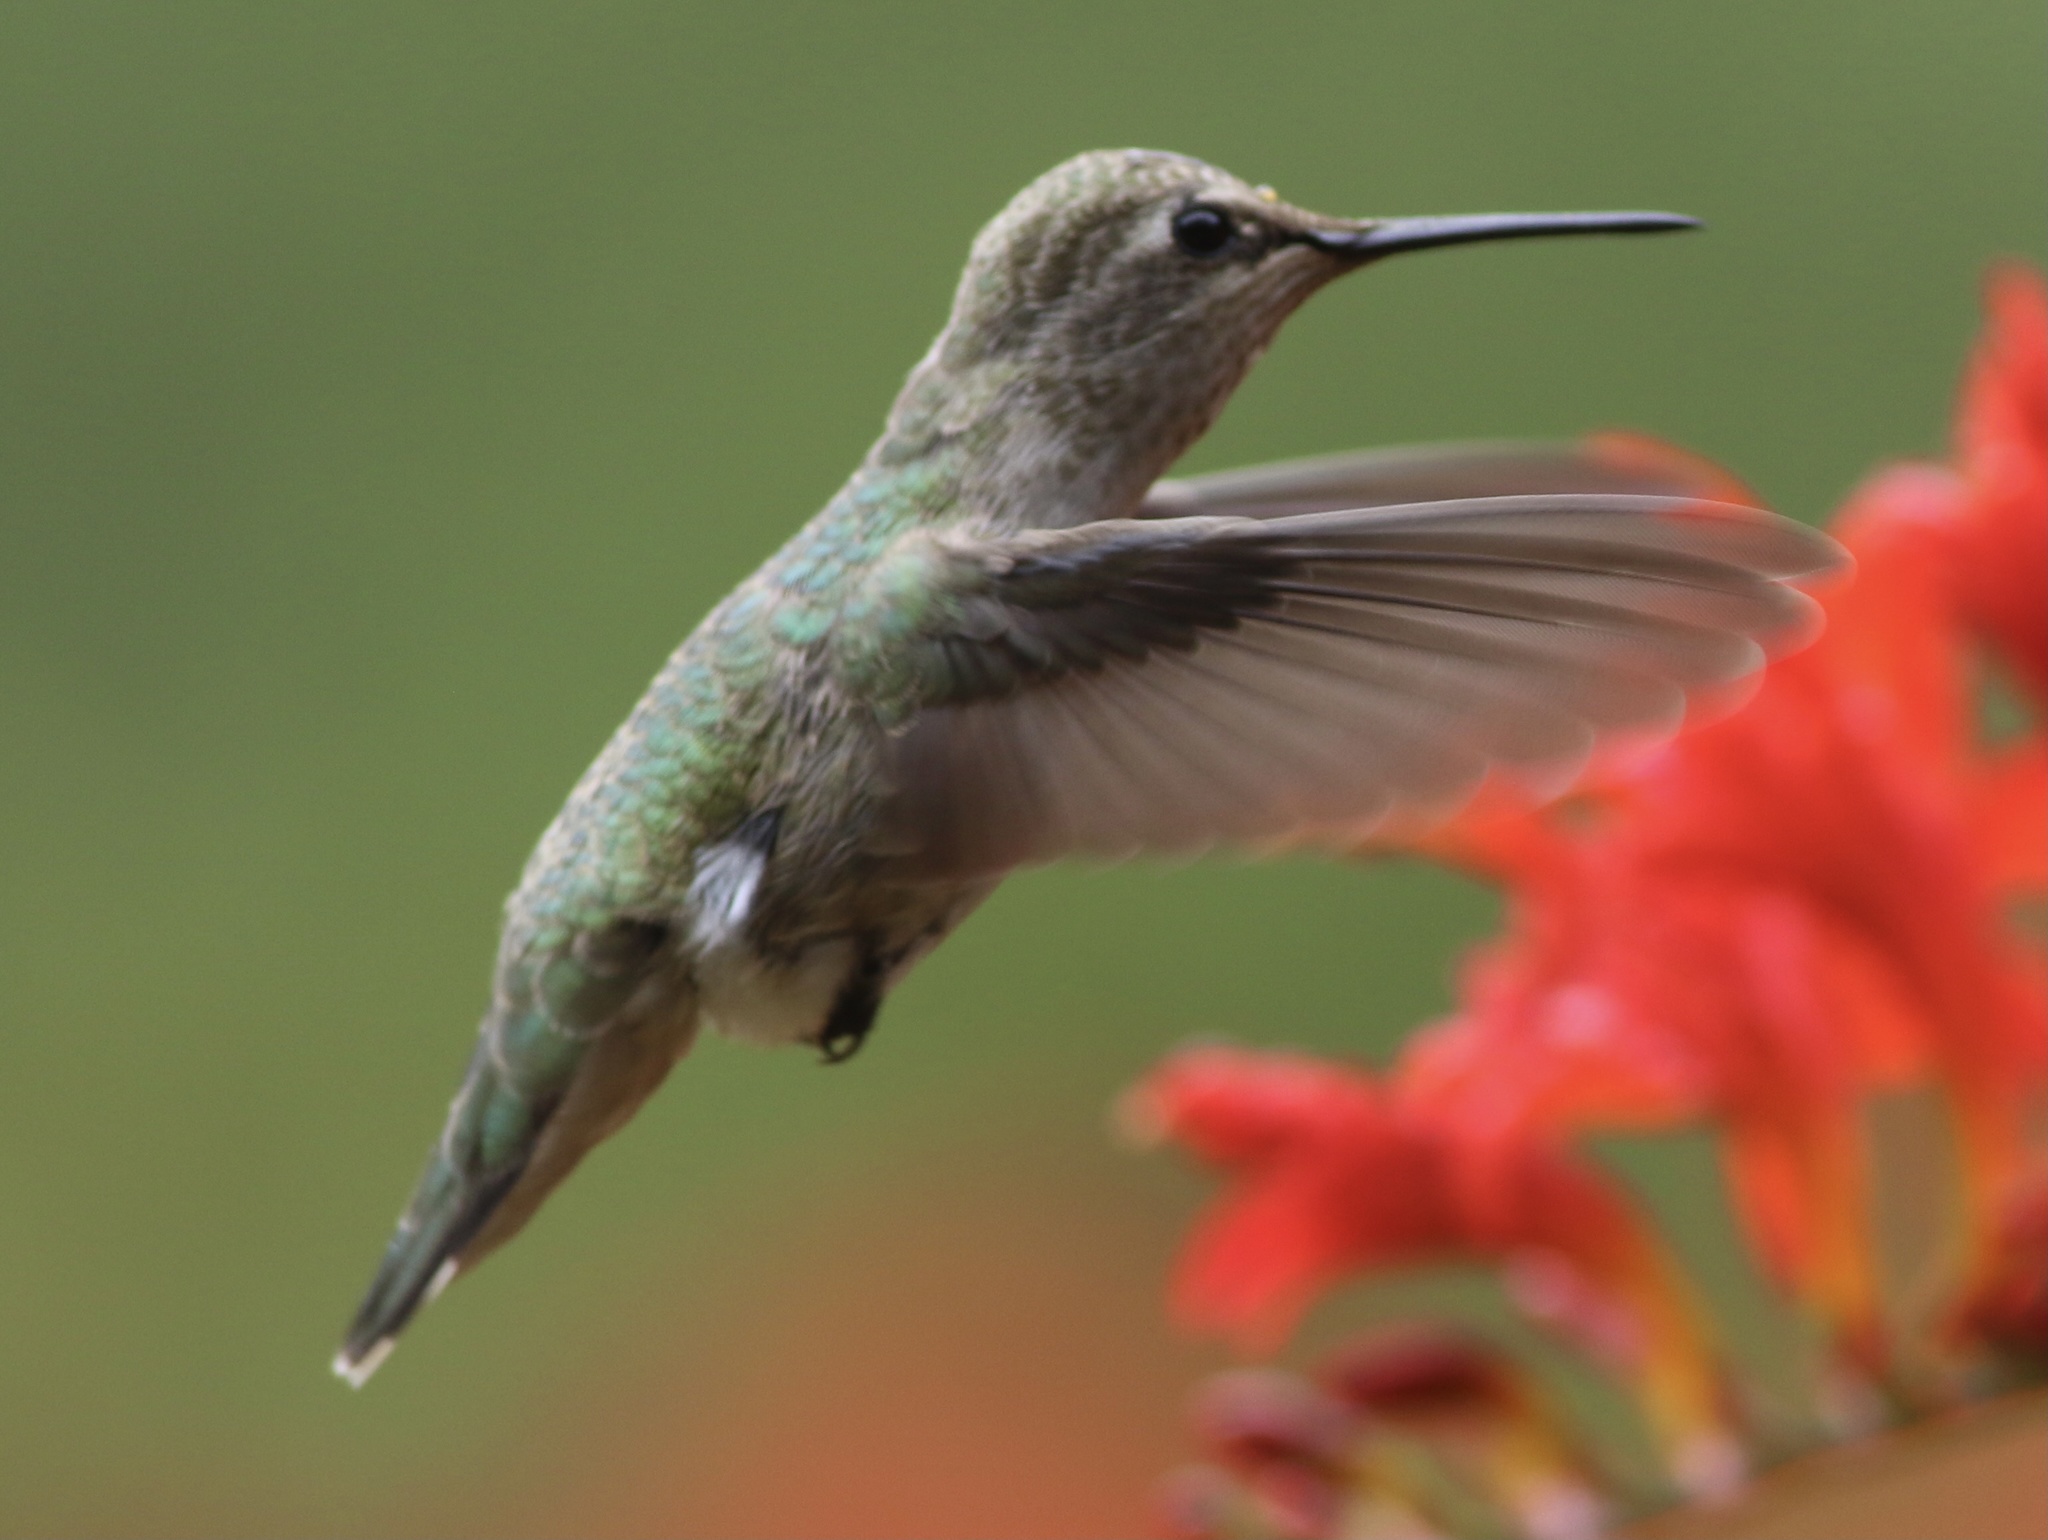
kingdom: Animalia
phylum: Chordata
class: Aves
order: Apodiformes
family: Trochilidae
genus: Calypte
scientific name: Calypte anna
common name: Anna's hummingbird
